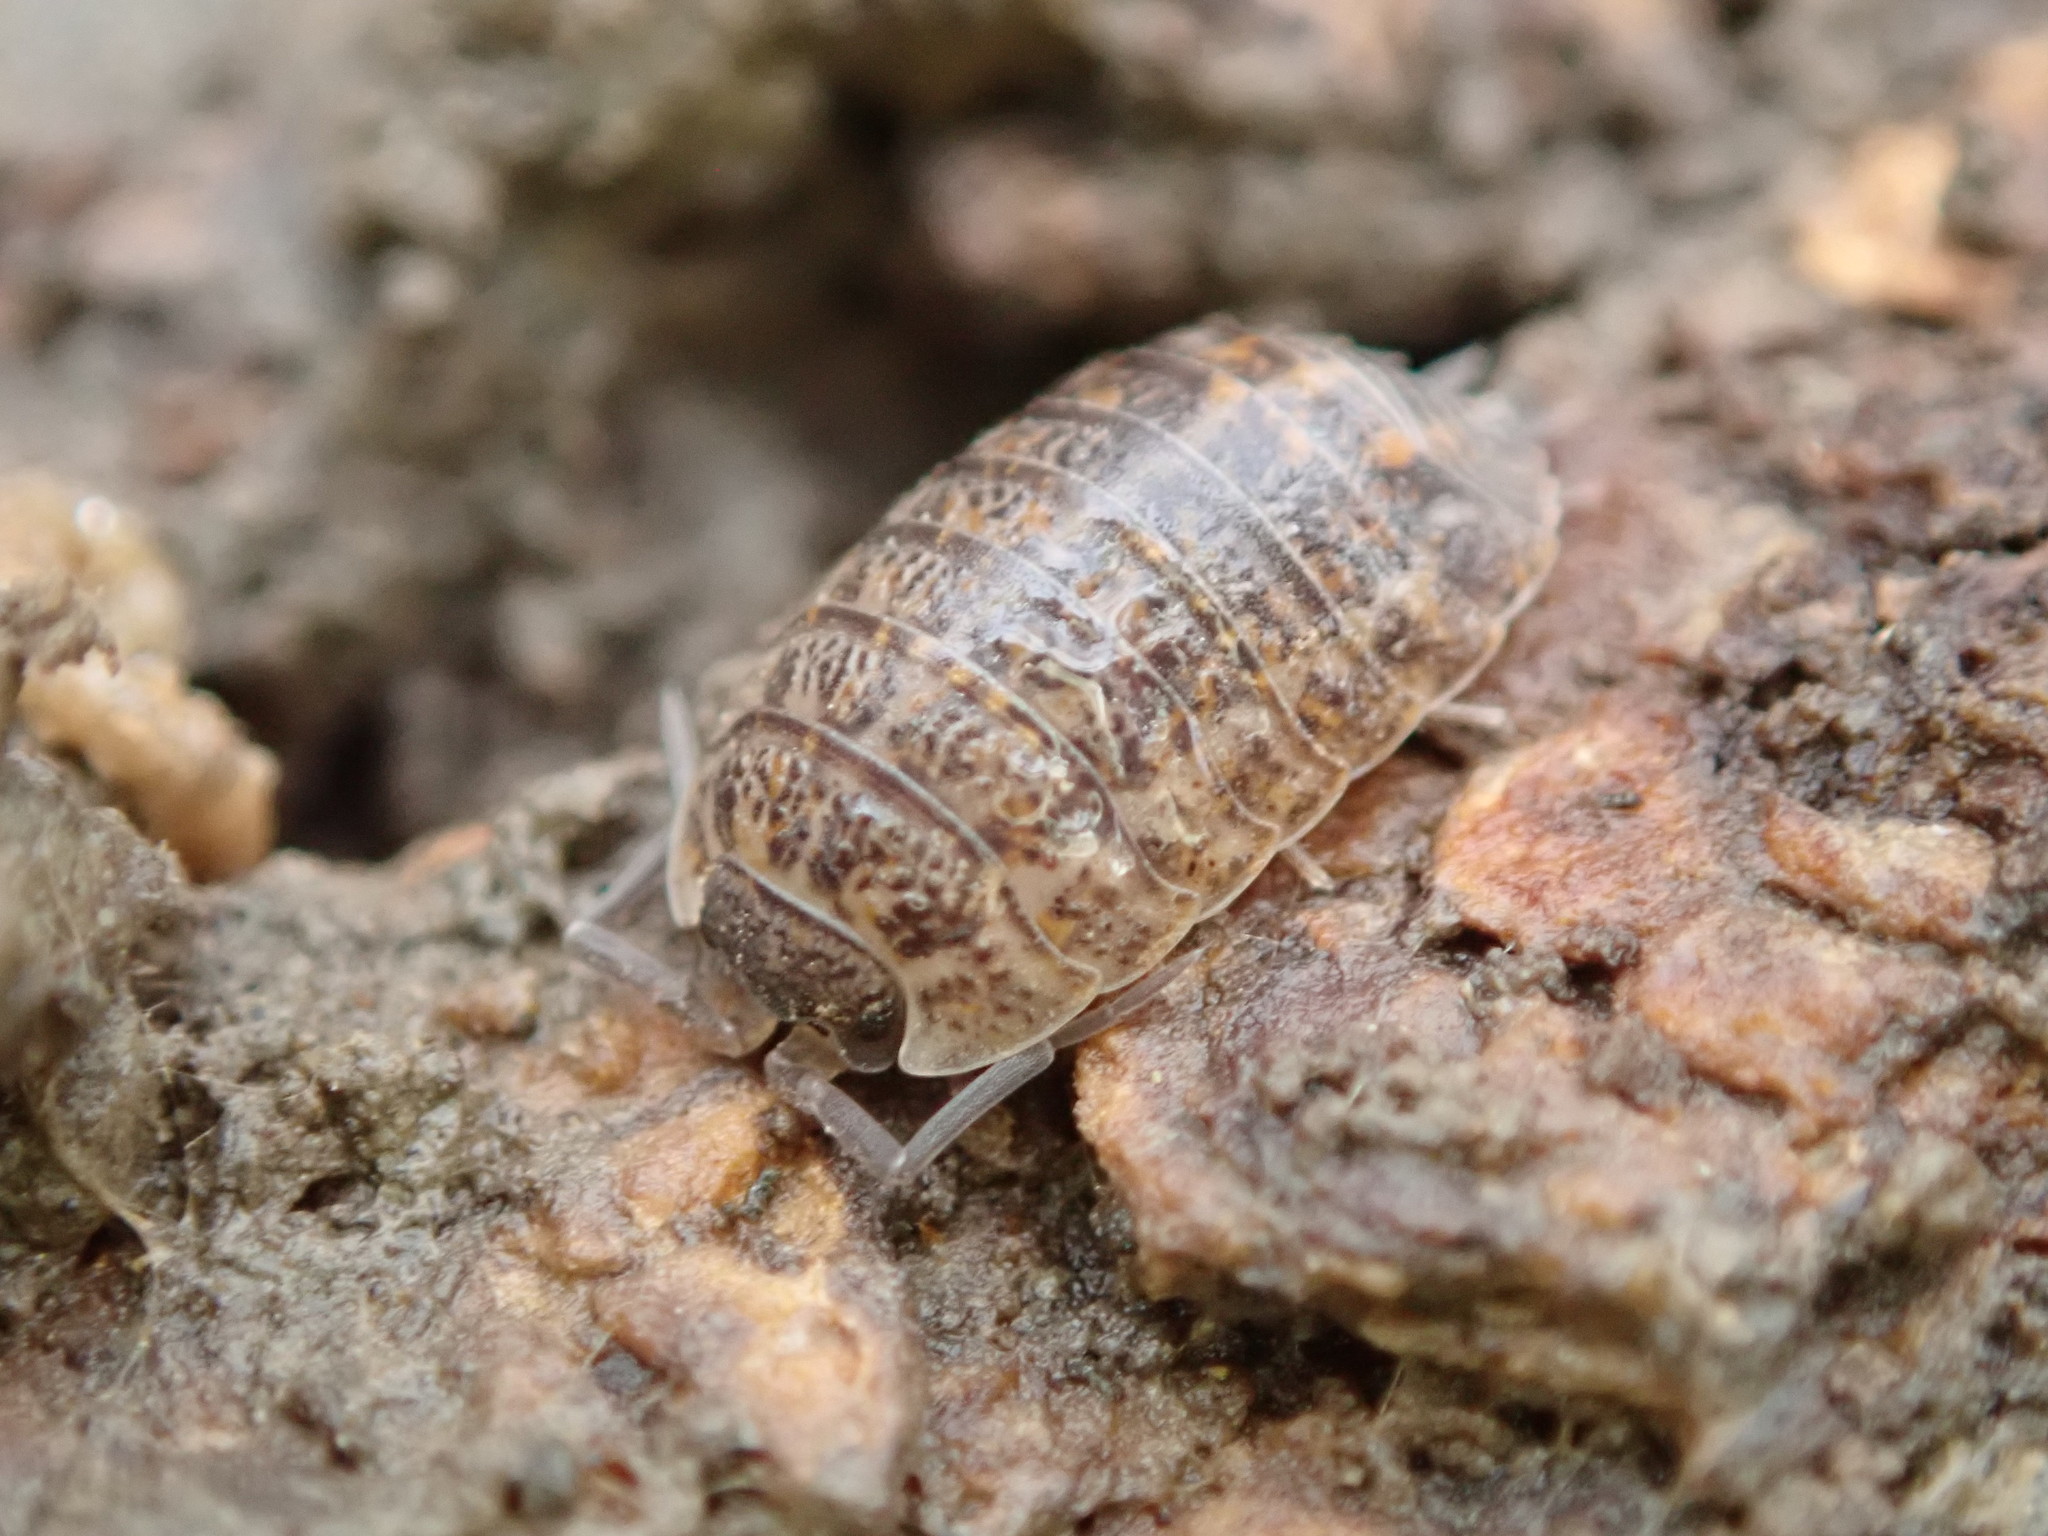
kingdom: Animalia
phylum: Arthropoda
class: Malacostraca
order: Isopoda
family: Trachelipodidae
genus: Trachelipus
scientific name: Trachelipus rathkii
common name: Isopod
